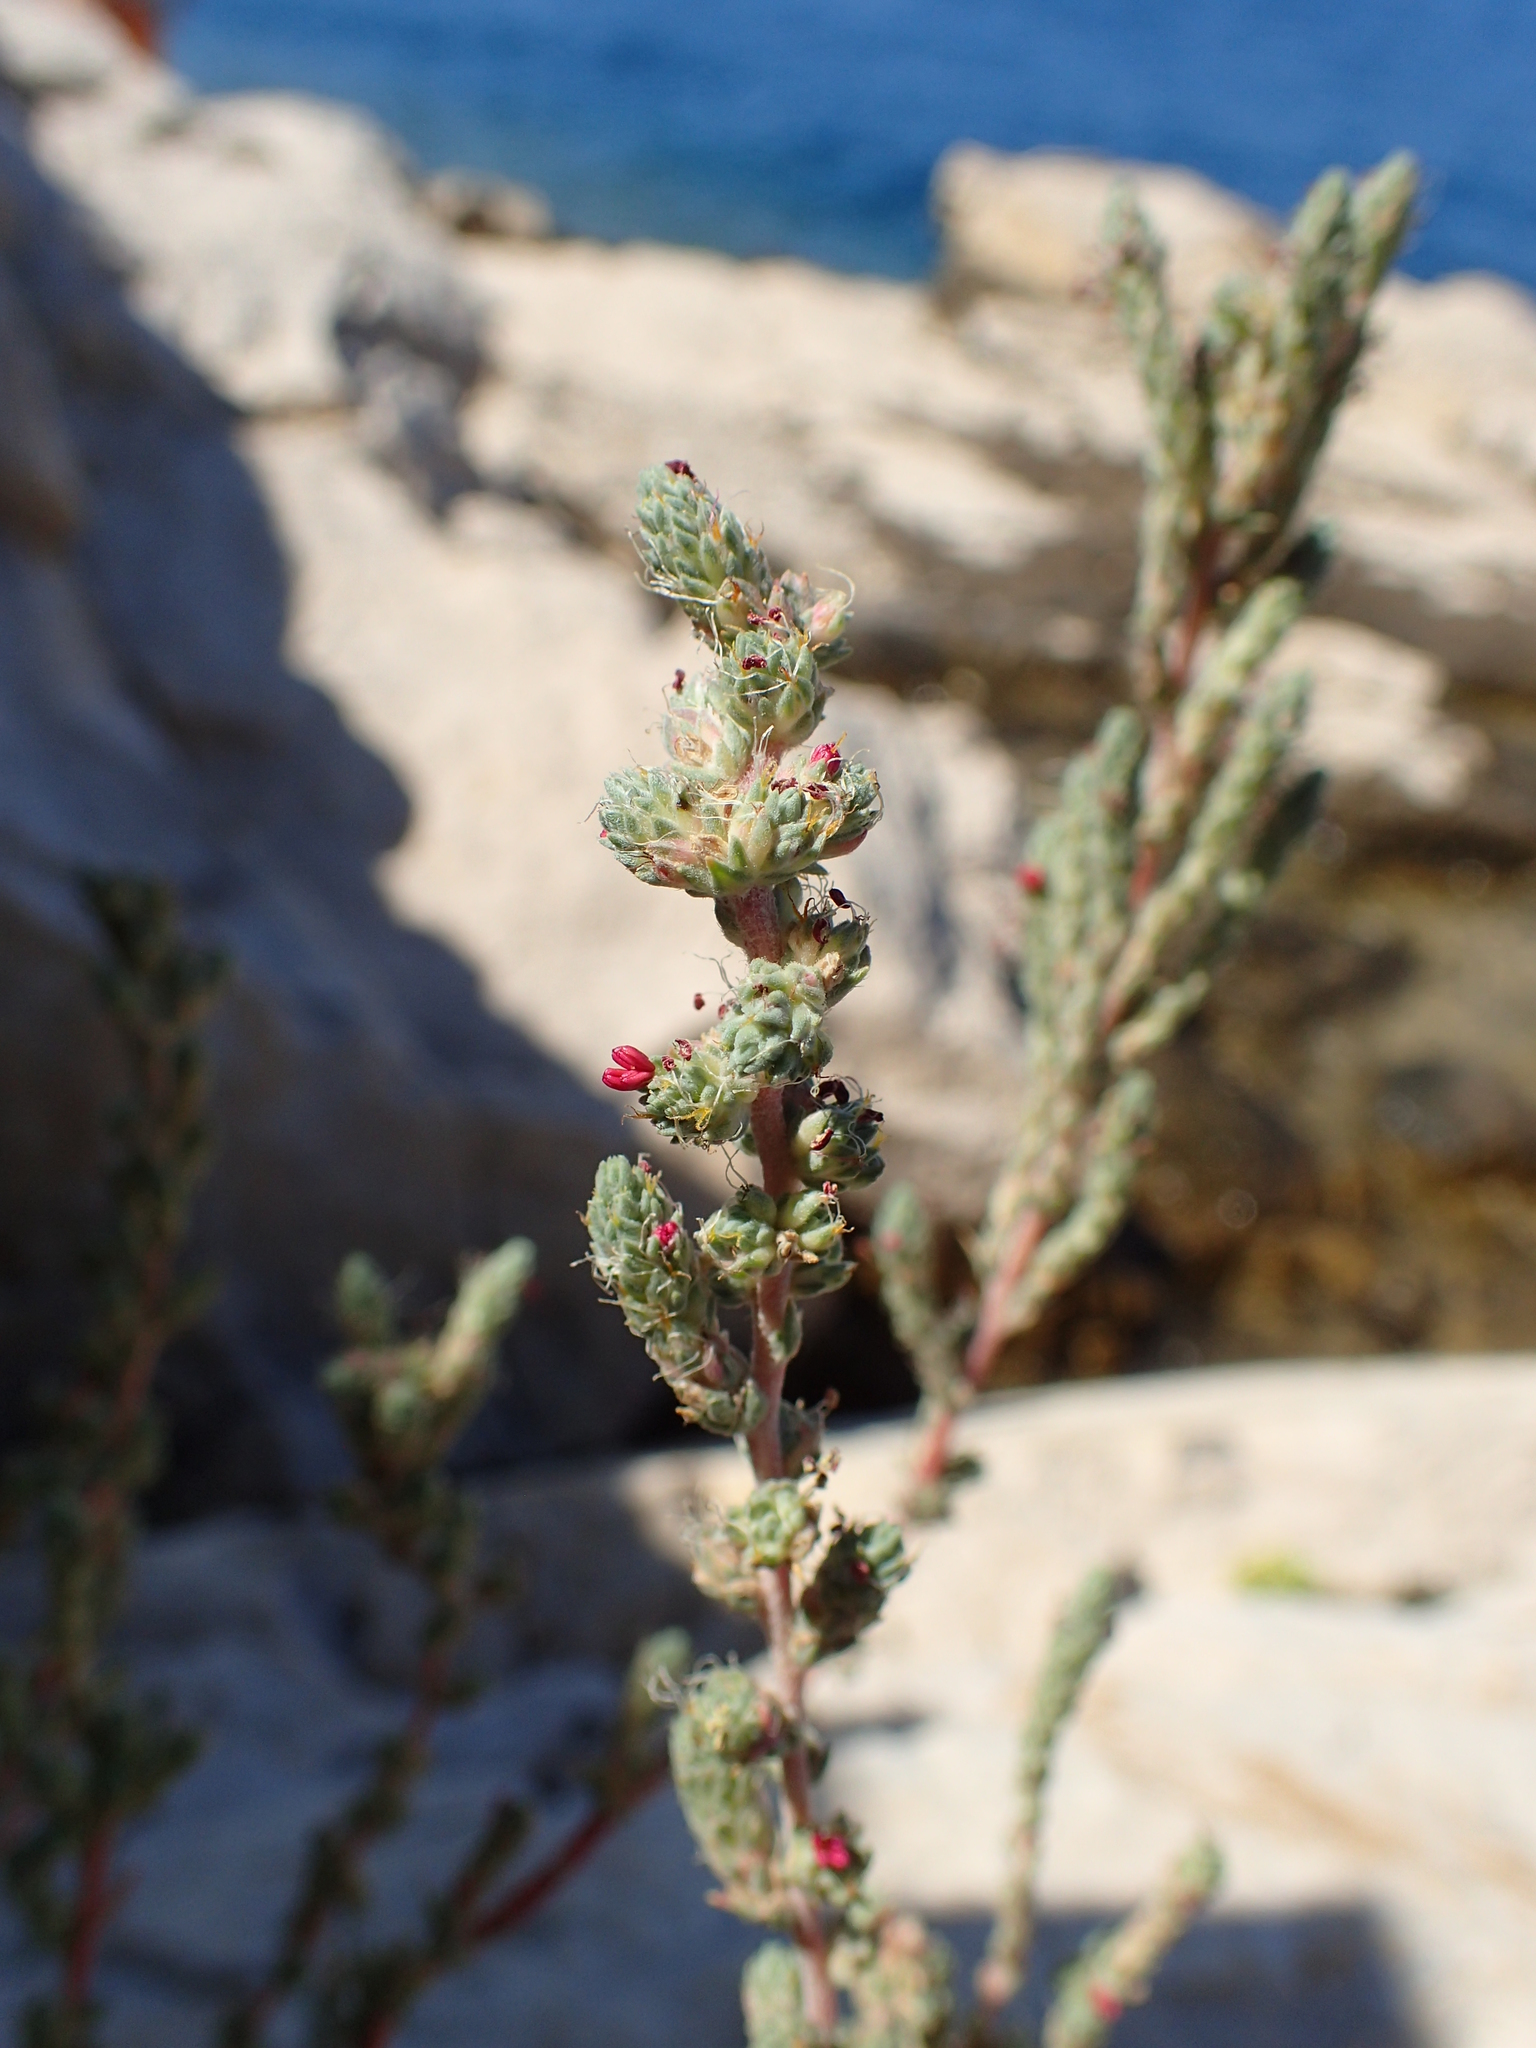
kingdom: Plantae
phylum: Tracheophyta
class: Magnoliopsida
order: Caryophyllales
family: Amaranthaceae
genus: Camphorosma
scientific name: Camphorosma monspeliaca
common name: Camphorfume
